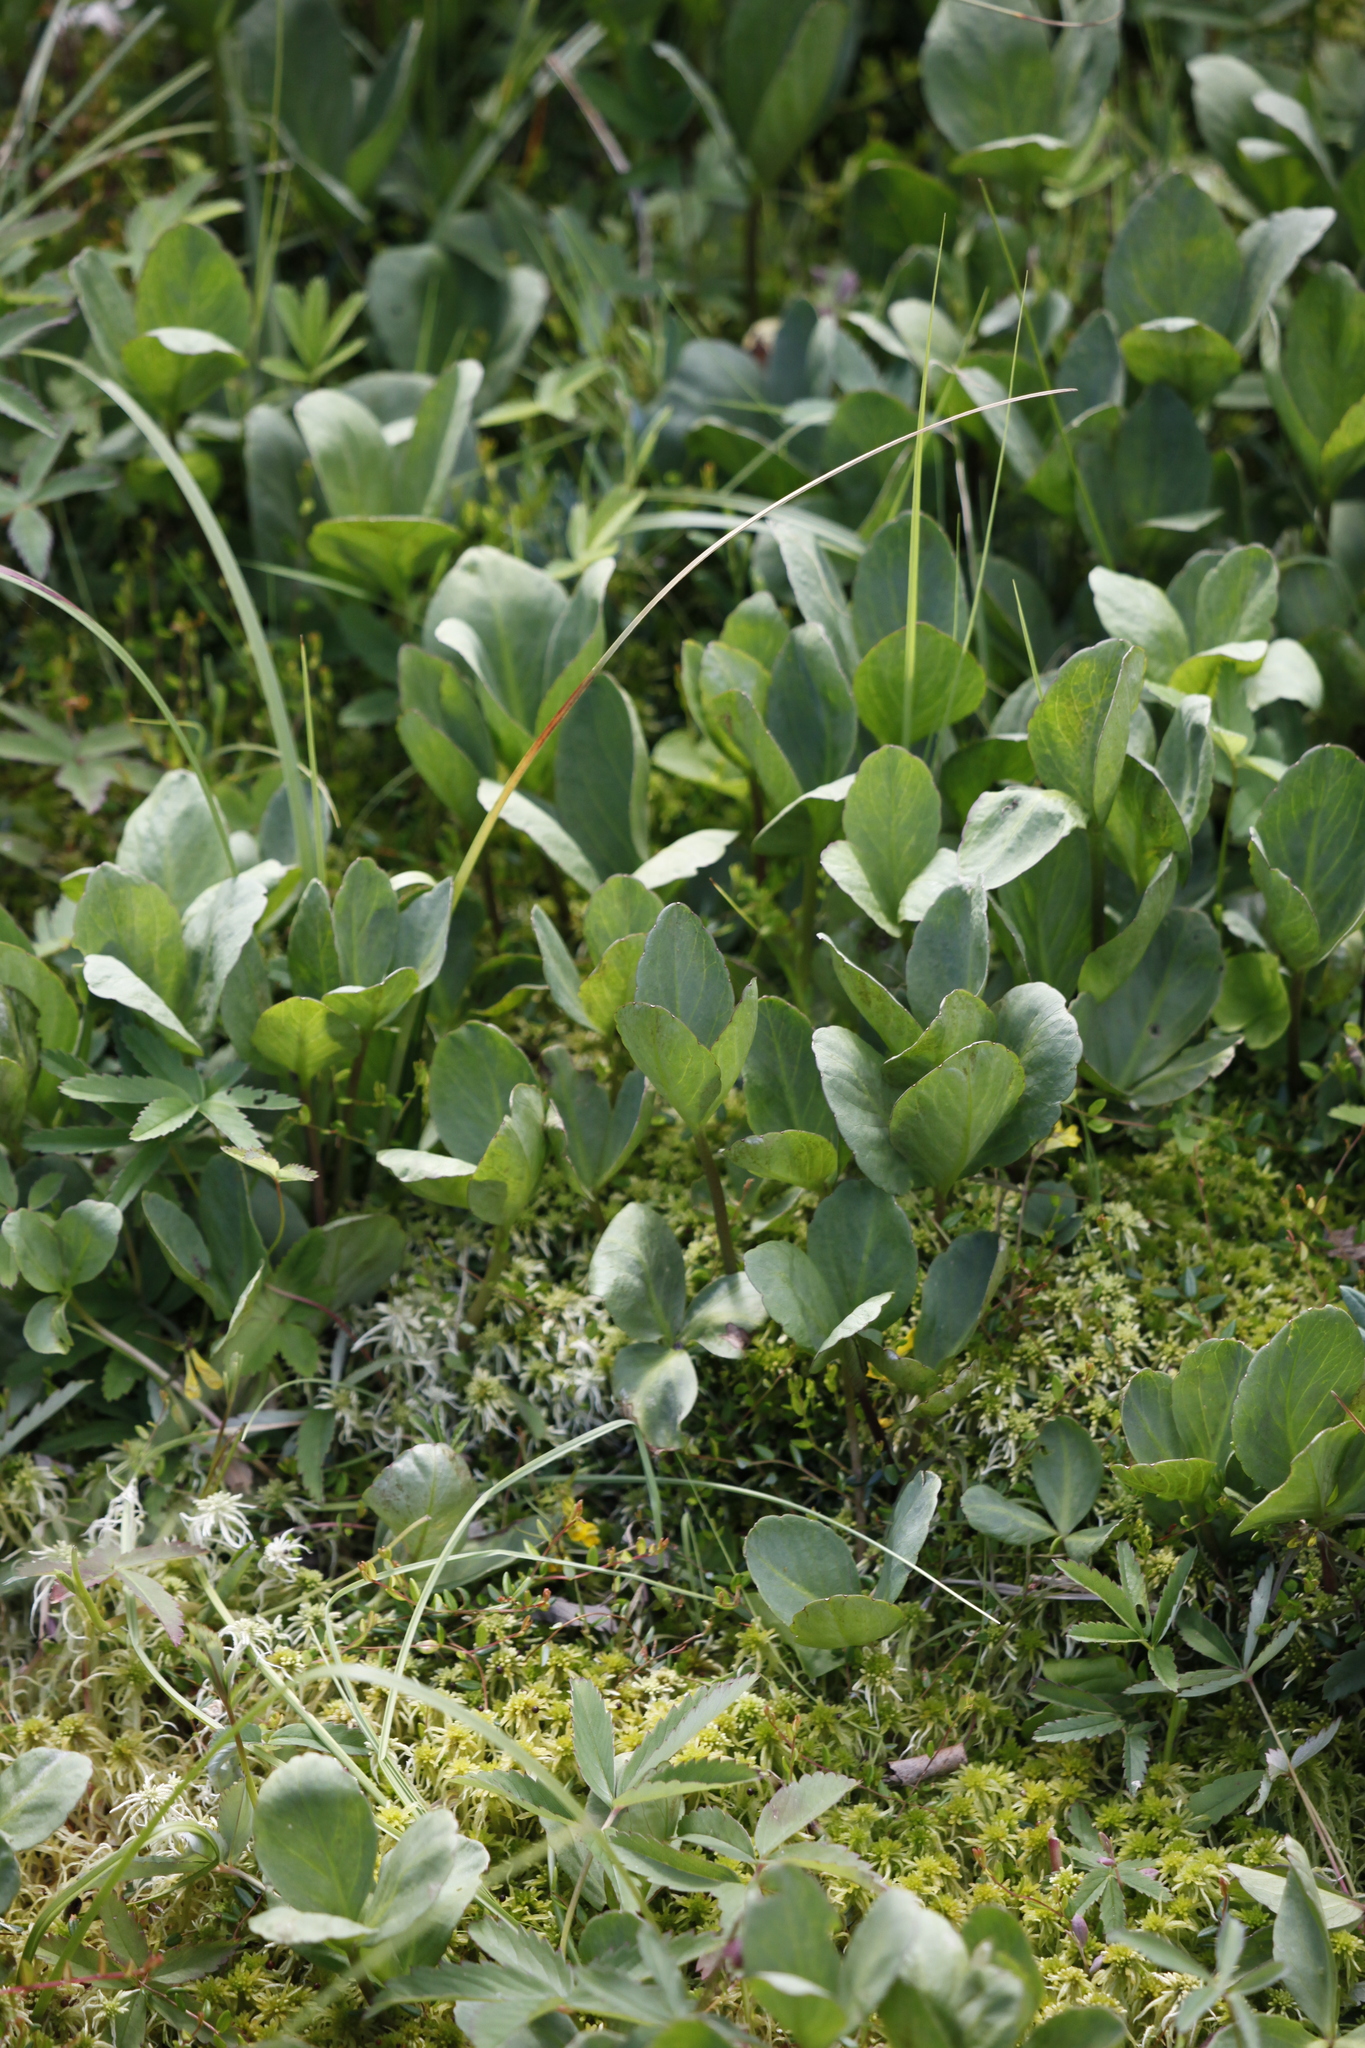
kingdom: Plantae
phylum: Tracheophyta
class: Magnoliopsida
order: Asterales
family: Menyanthaceae
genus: Menyanthes
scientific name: Menyanthes trifoliata
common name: Bogbean
